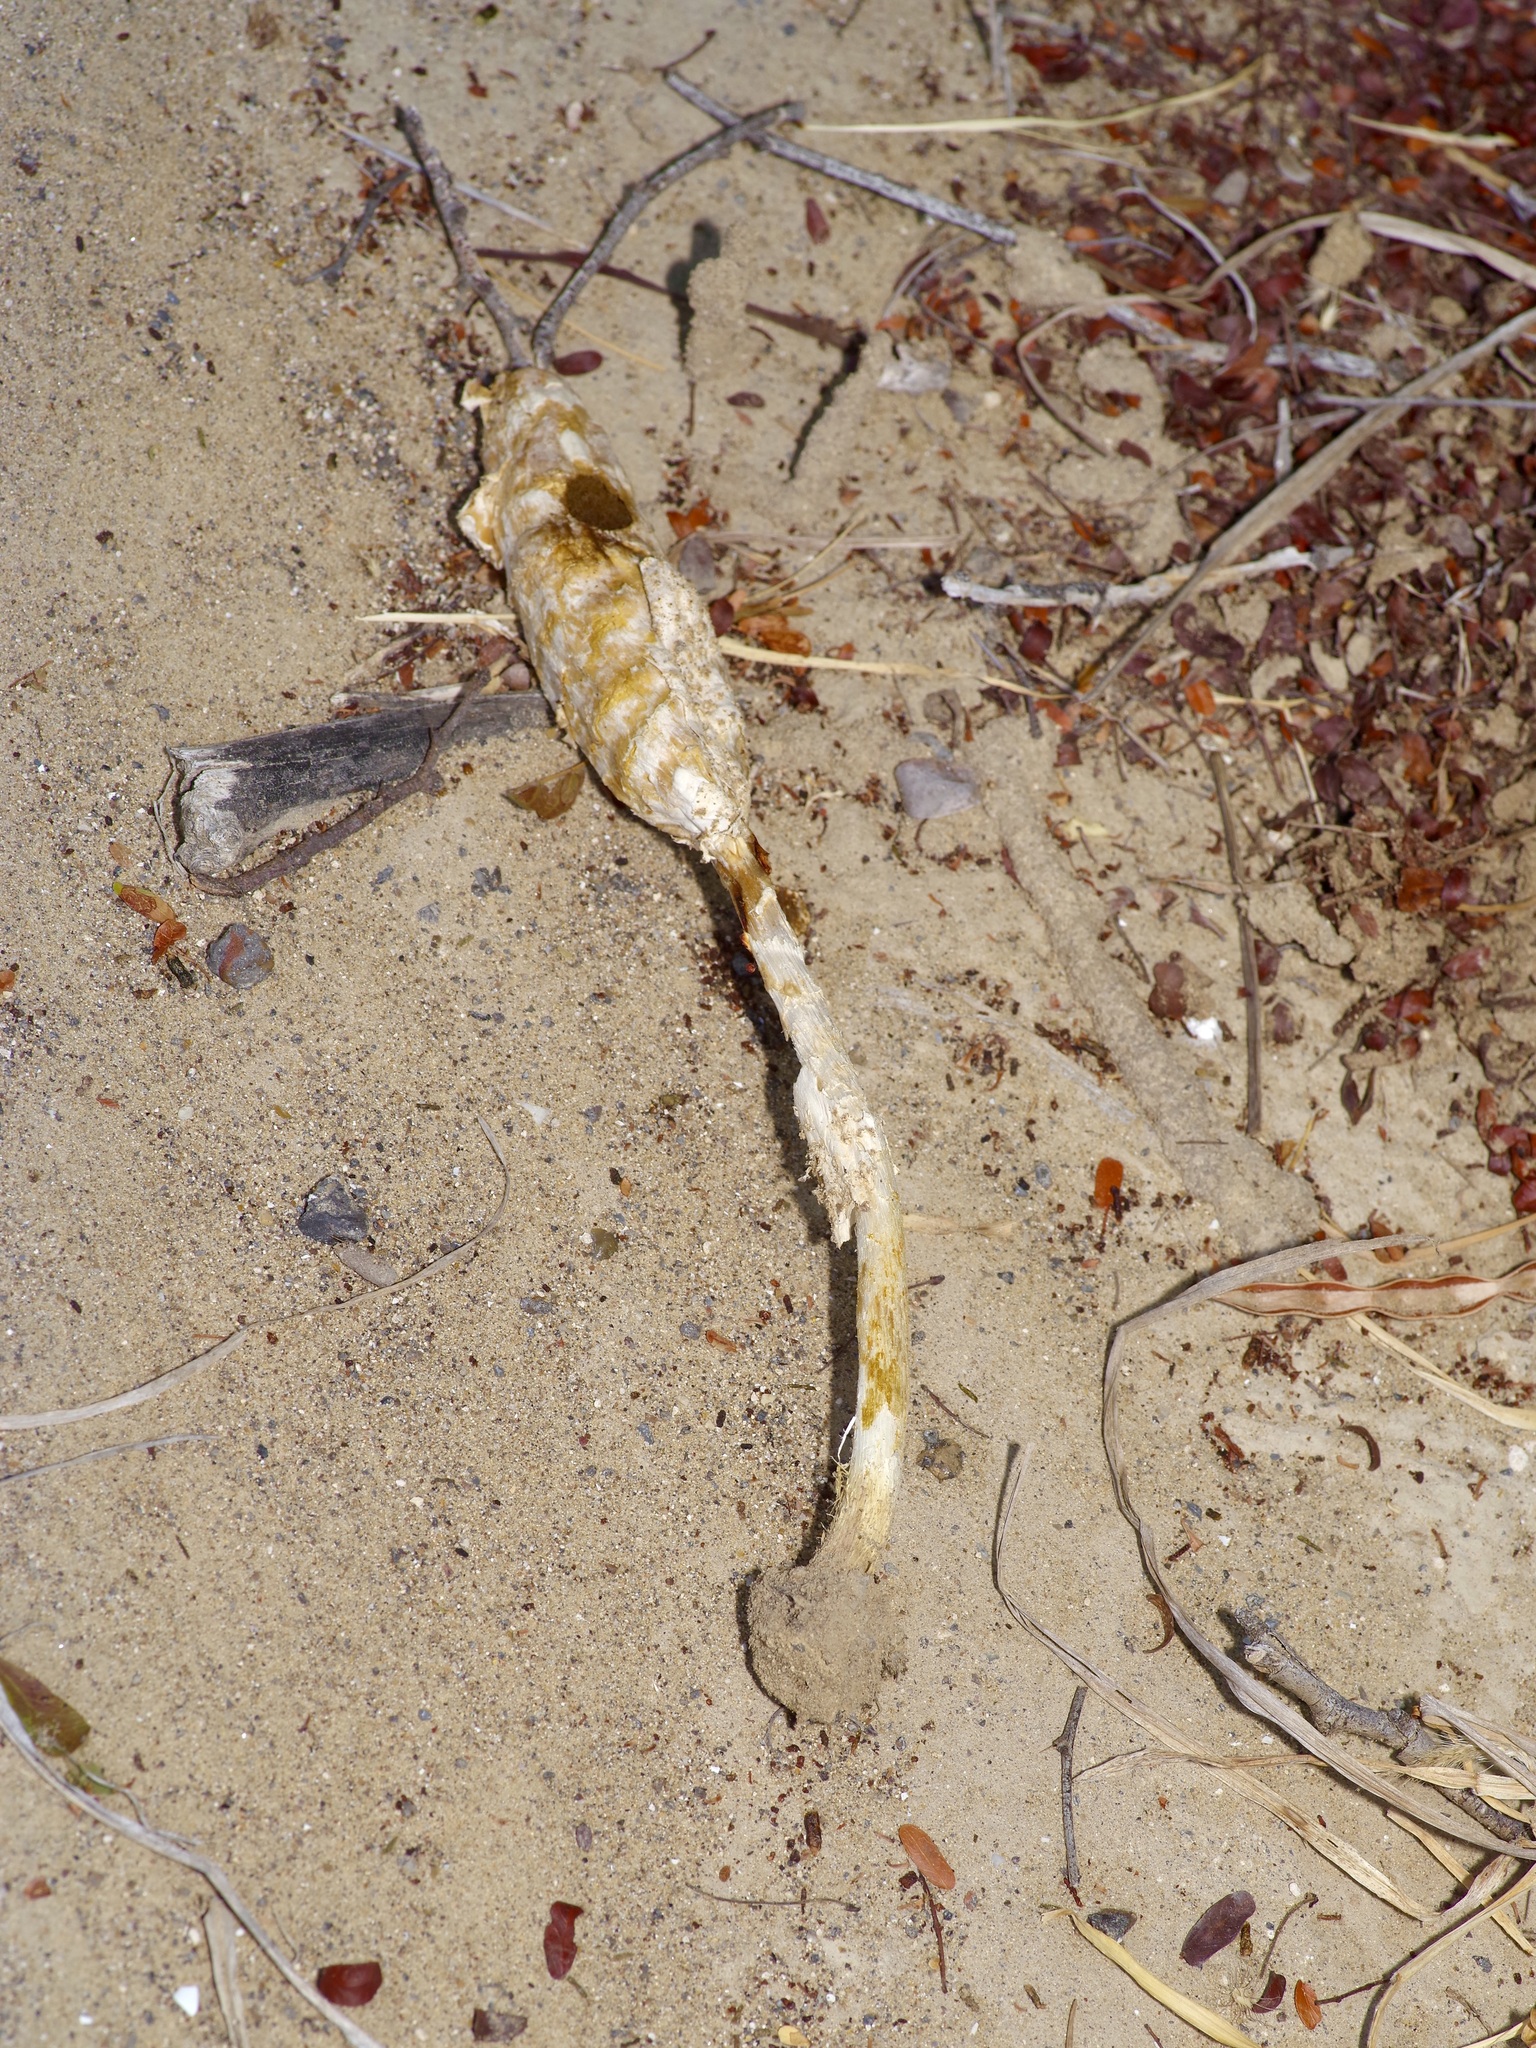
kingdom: Fungi
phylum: Basidiomycota
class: Agaricomycetes
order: Agaricales
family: Agaricaceae
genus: Podaxis
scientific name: Podaxis pistillaris
